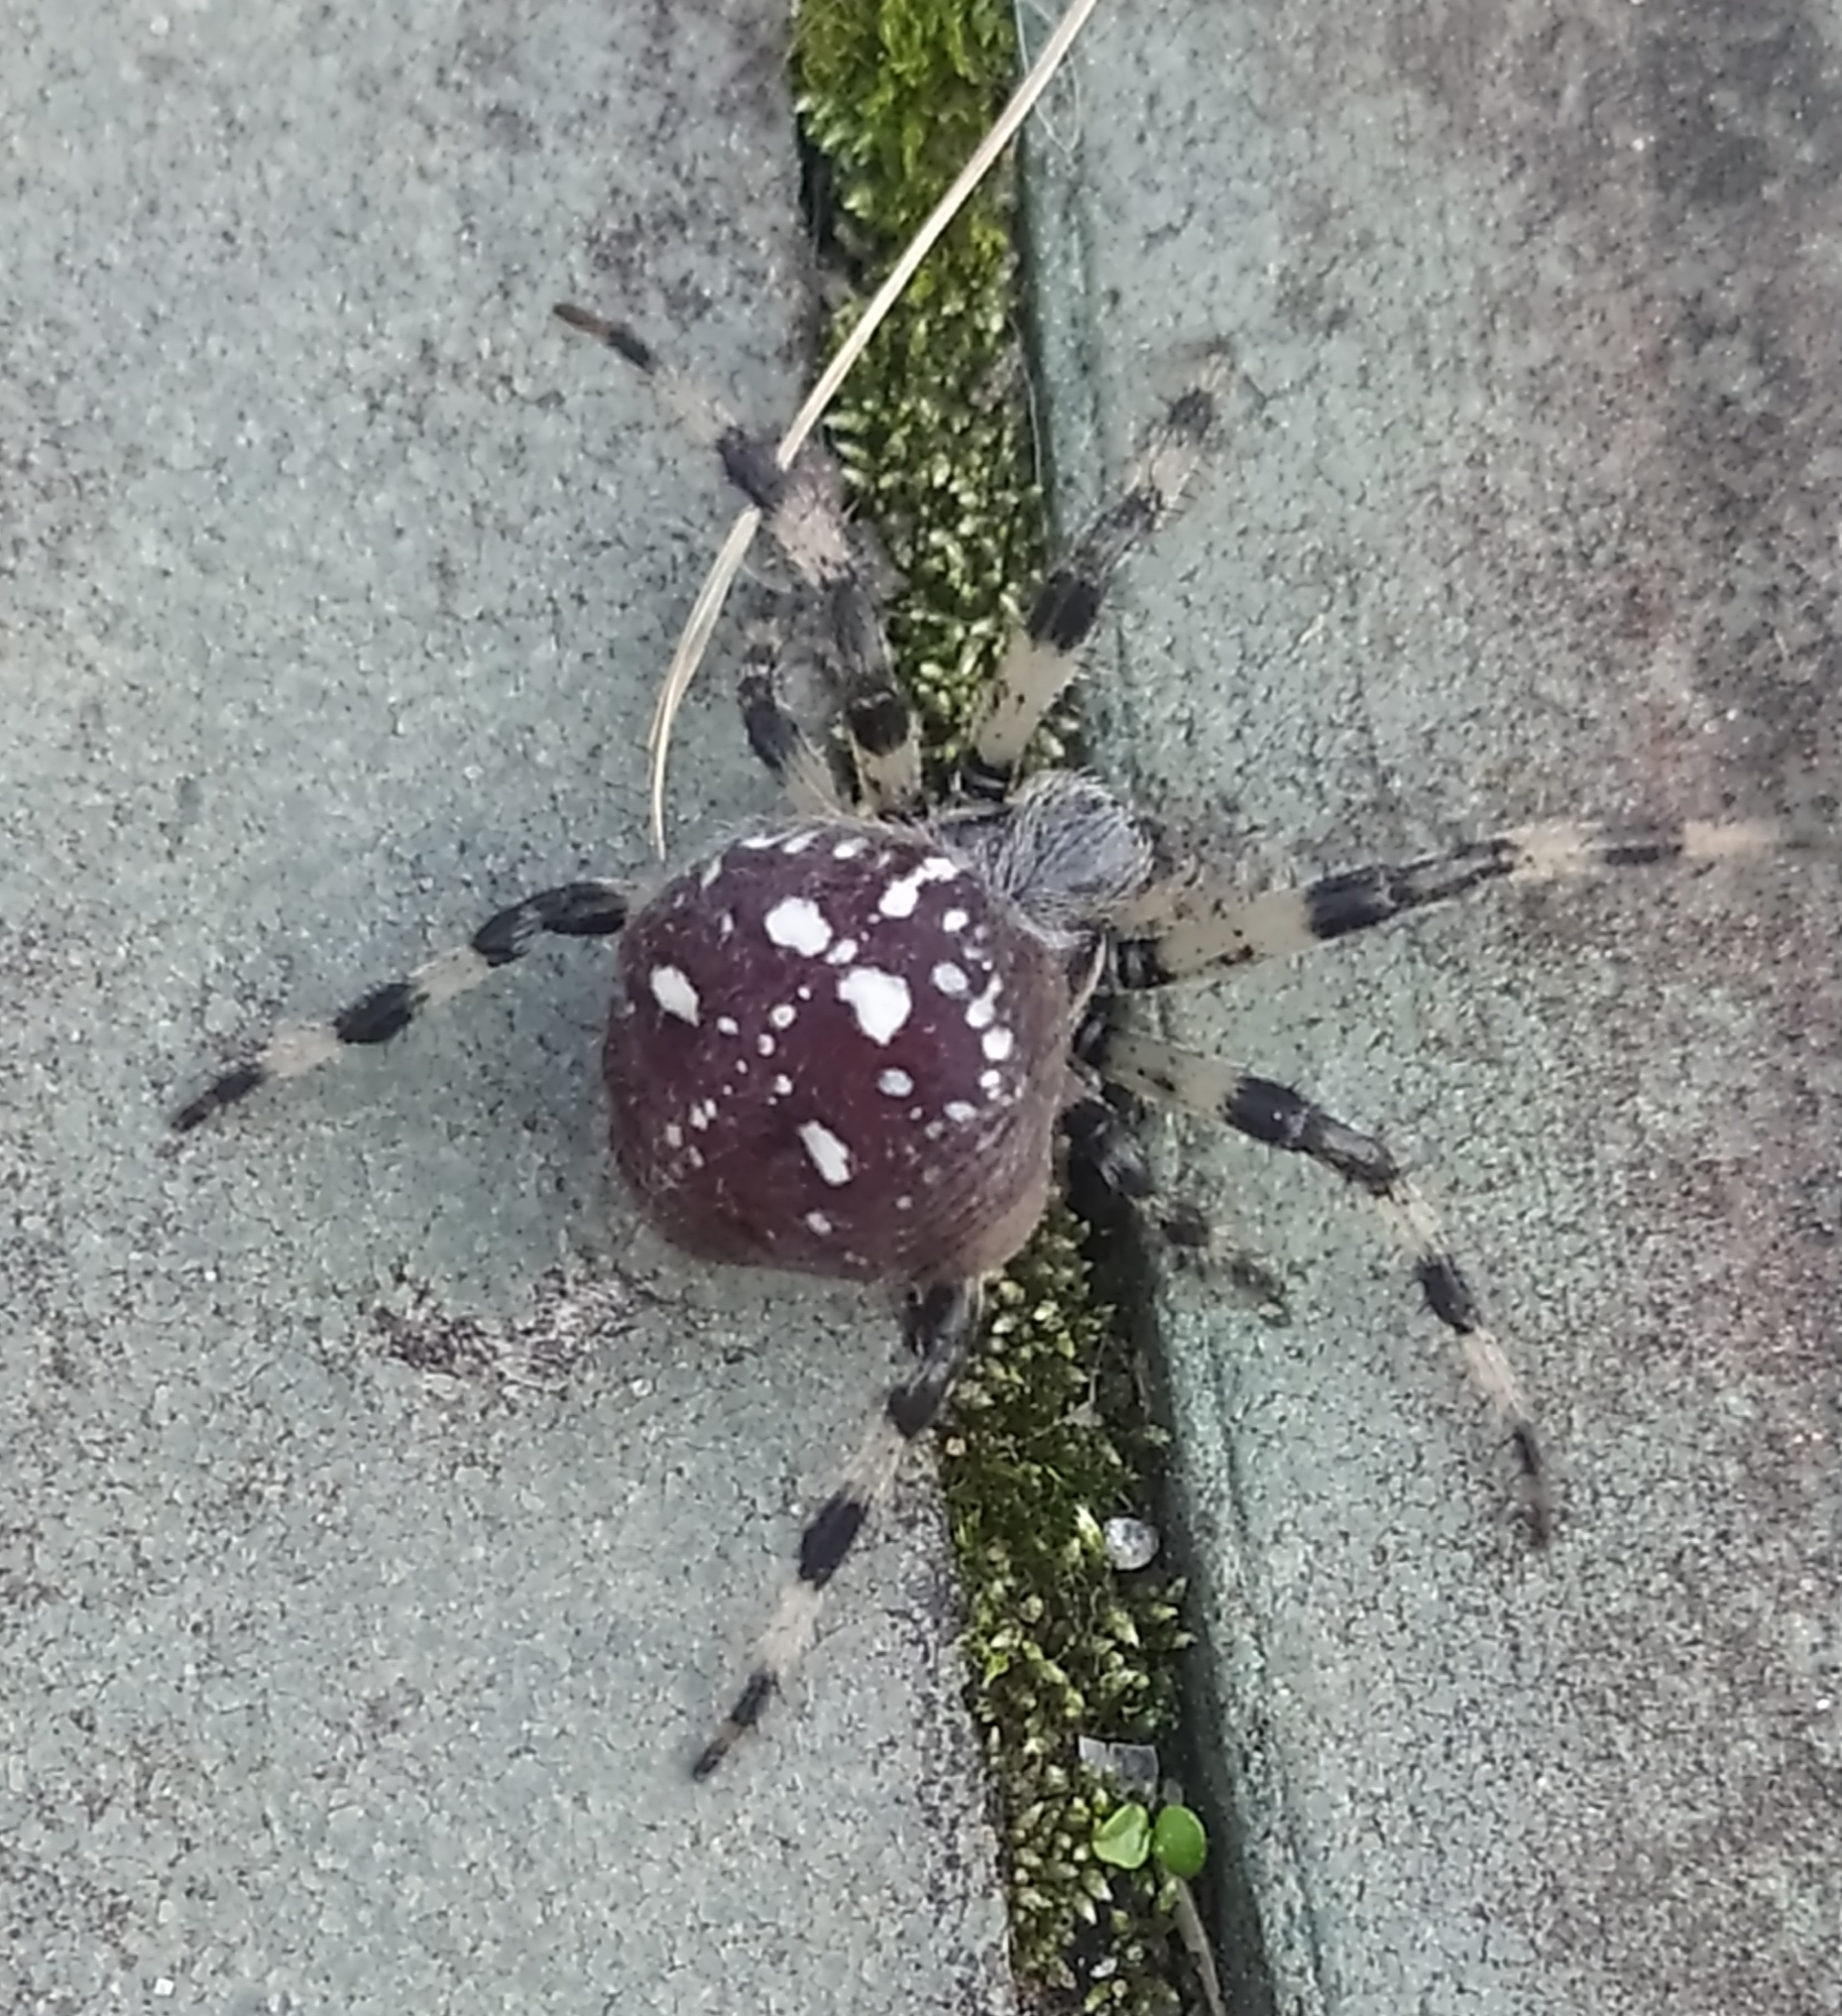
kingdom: Animalia
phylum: Arthropoda
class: Arachnida
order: Araneae
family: Araneidae
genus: Araneus
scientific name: Araneus quadratus
